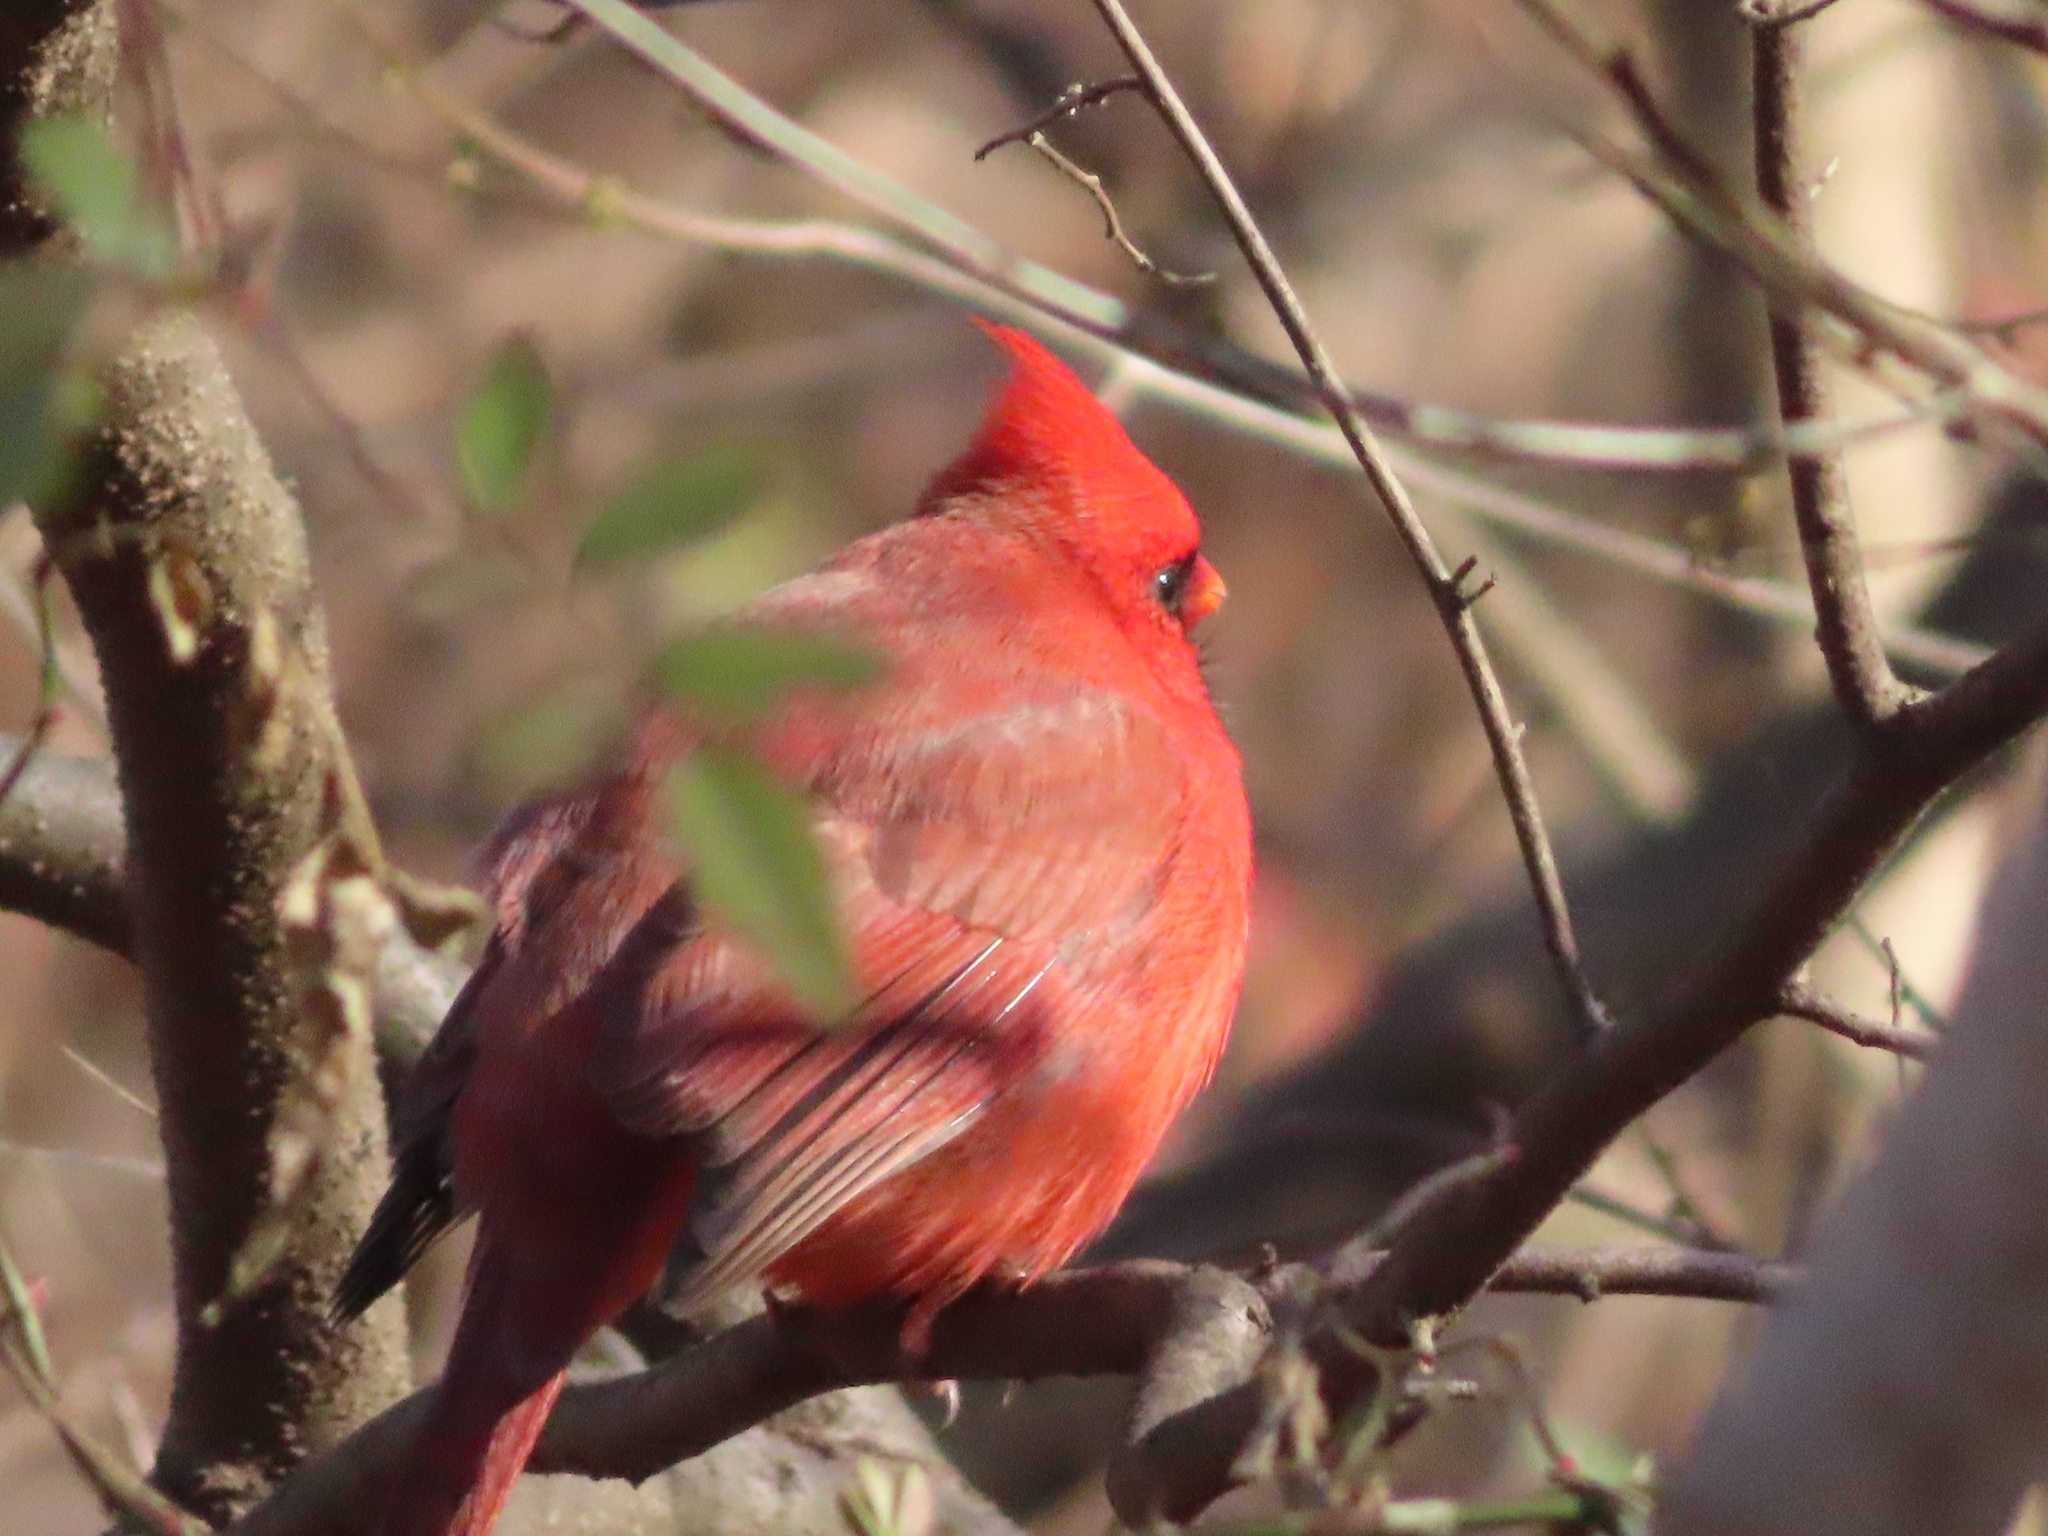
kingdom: Animalia
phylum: Chordata
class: Aves
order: Passeriformes
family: Cardinalidae
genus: Cardinalis
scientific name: Cardinalis cardinalis
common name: Northern cardinal
